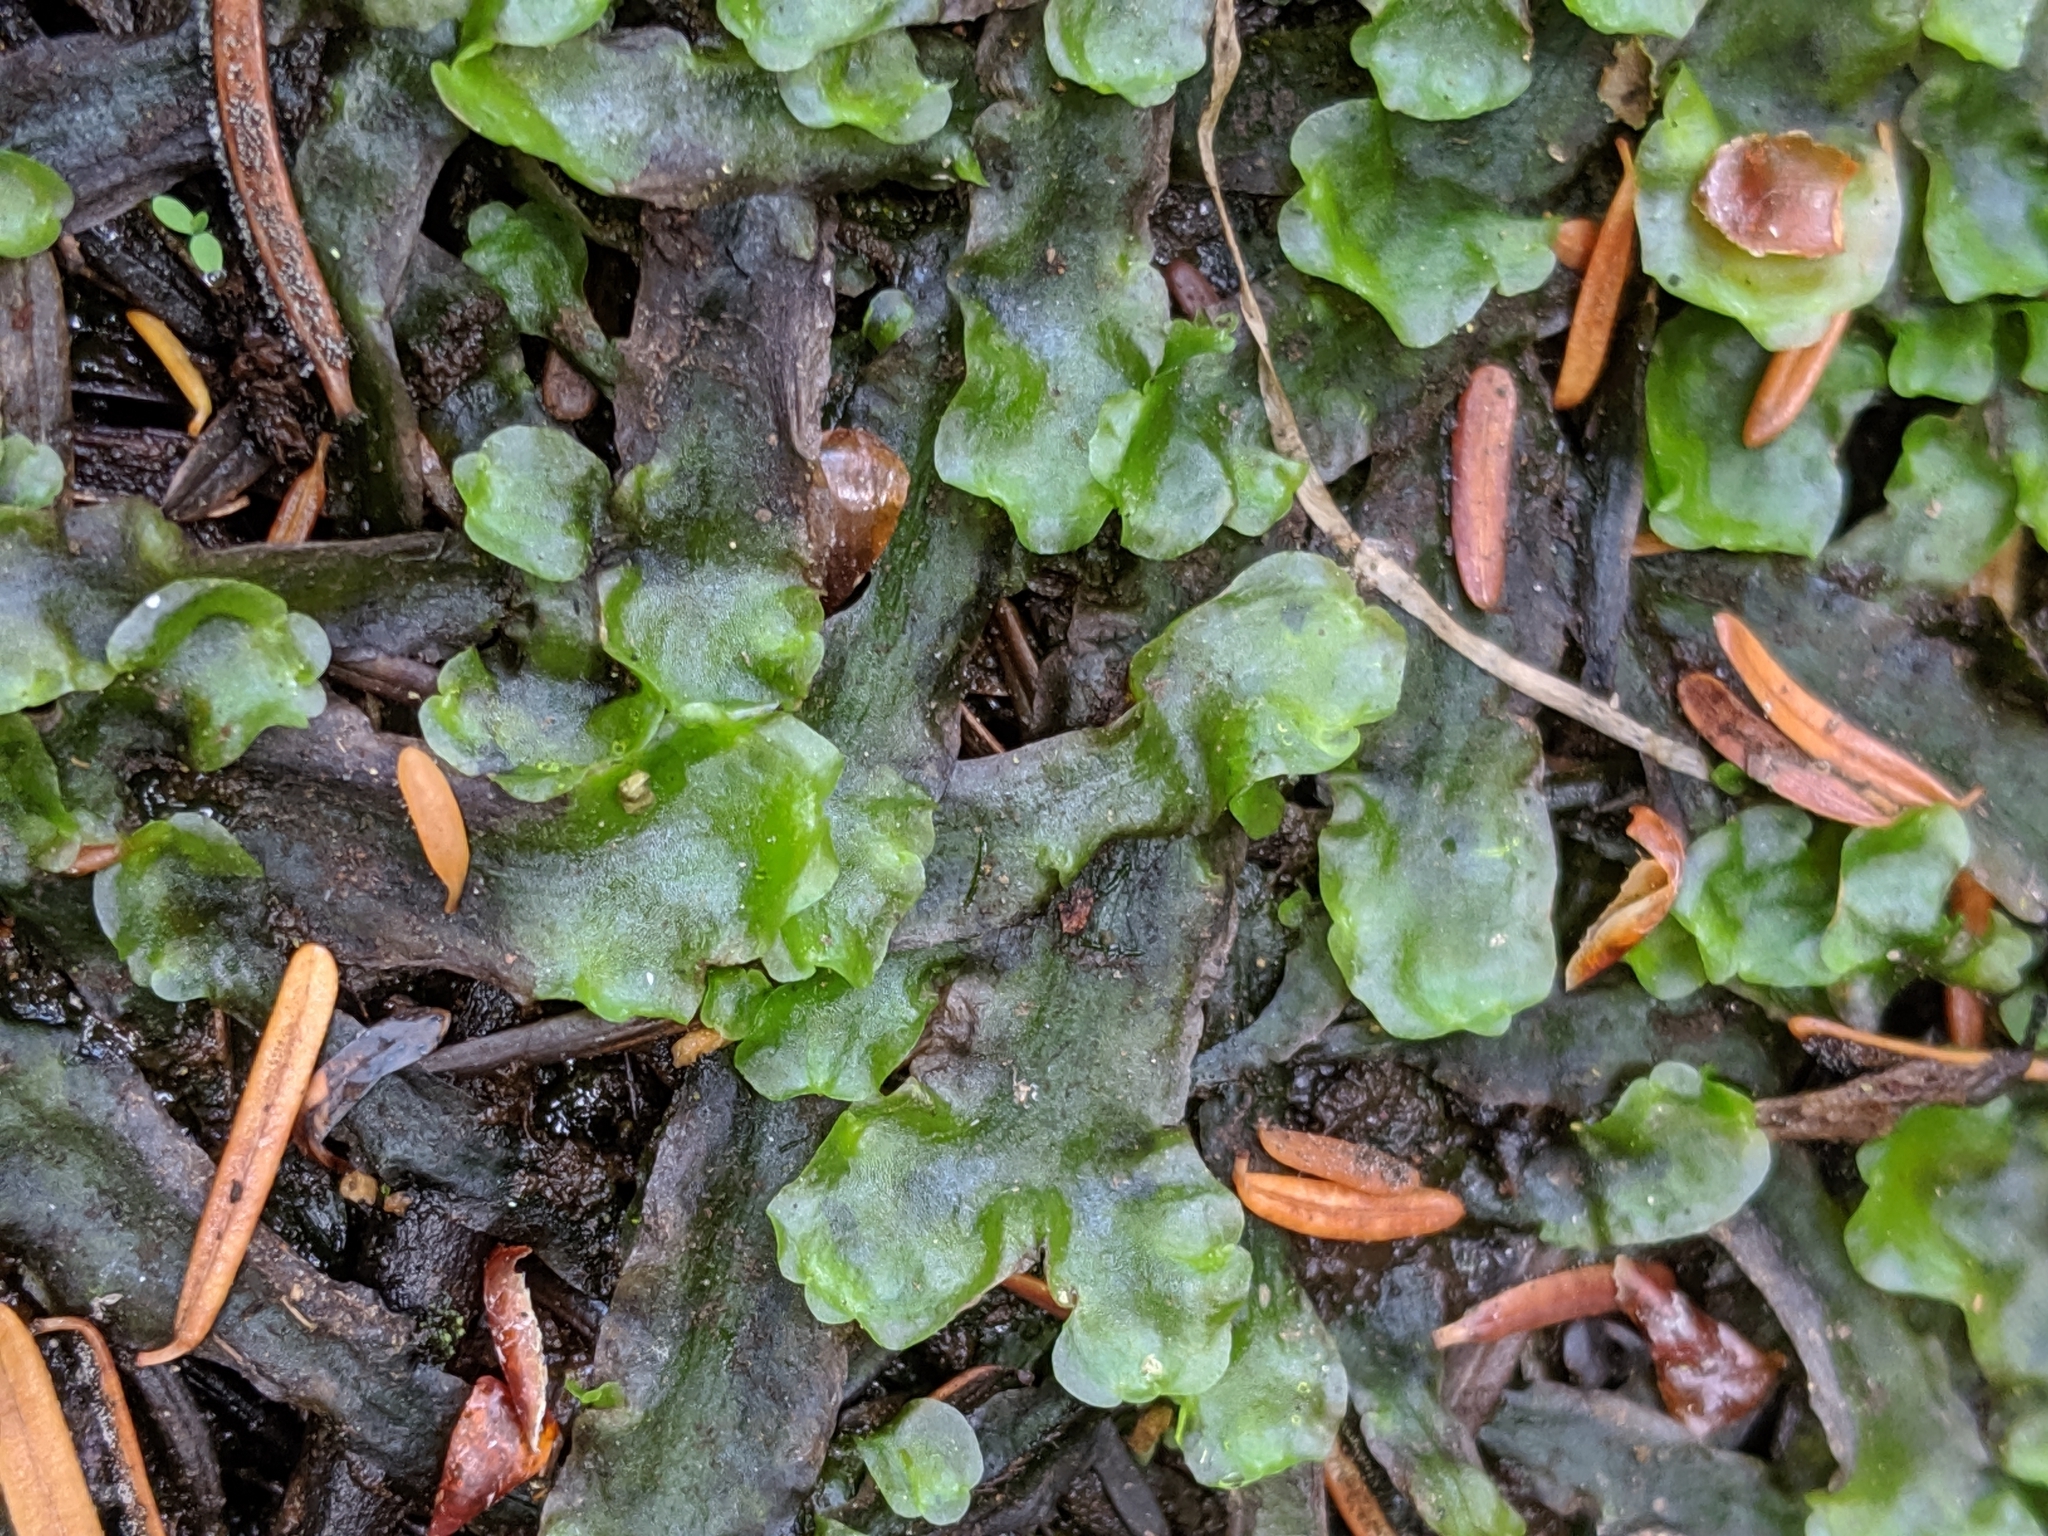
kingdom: Plantae
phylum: Marchantiophyta
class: Jungermanniopsida
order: Pelliales
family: Pelliaceae
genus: Pellia
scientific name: Pellia neesiana
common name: Nees  pellia
